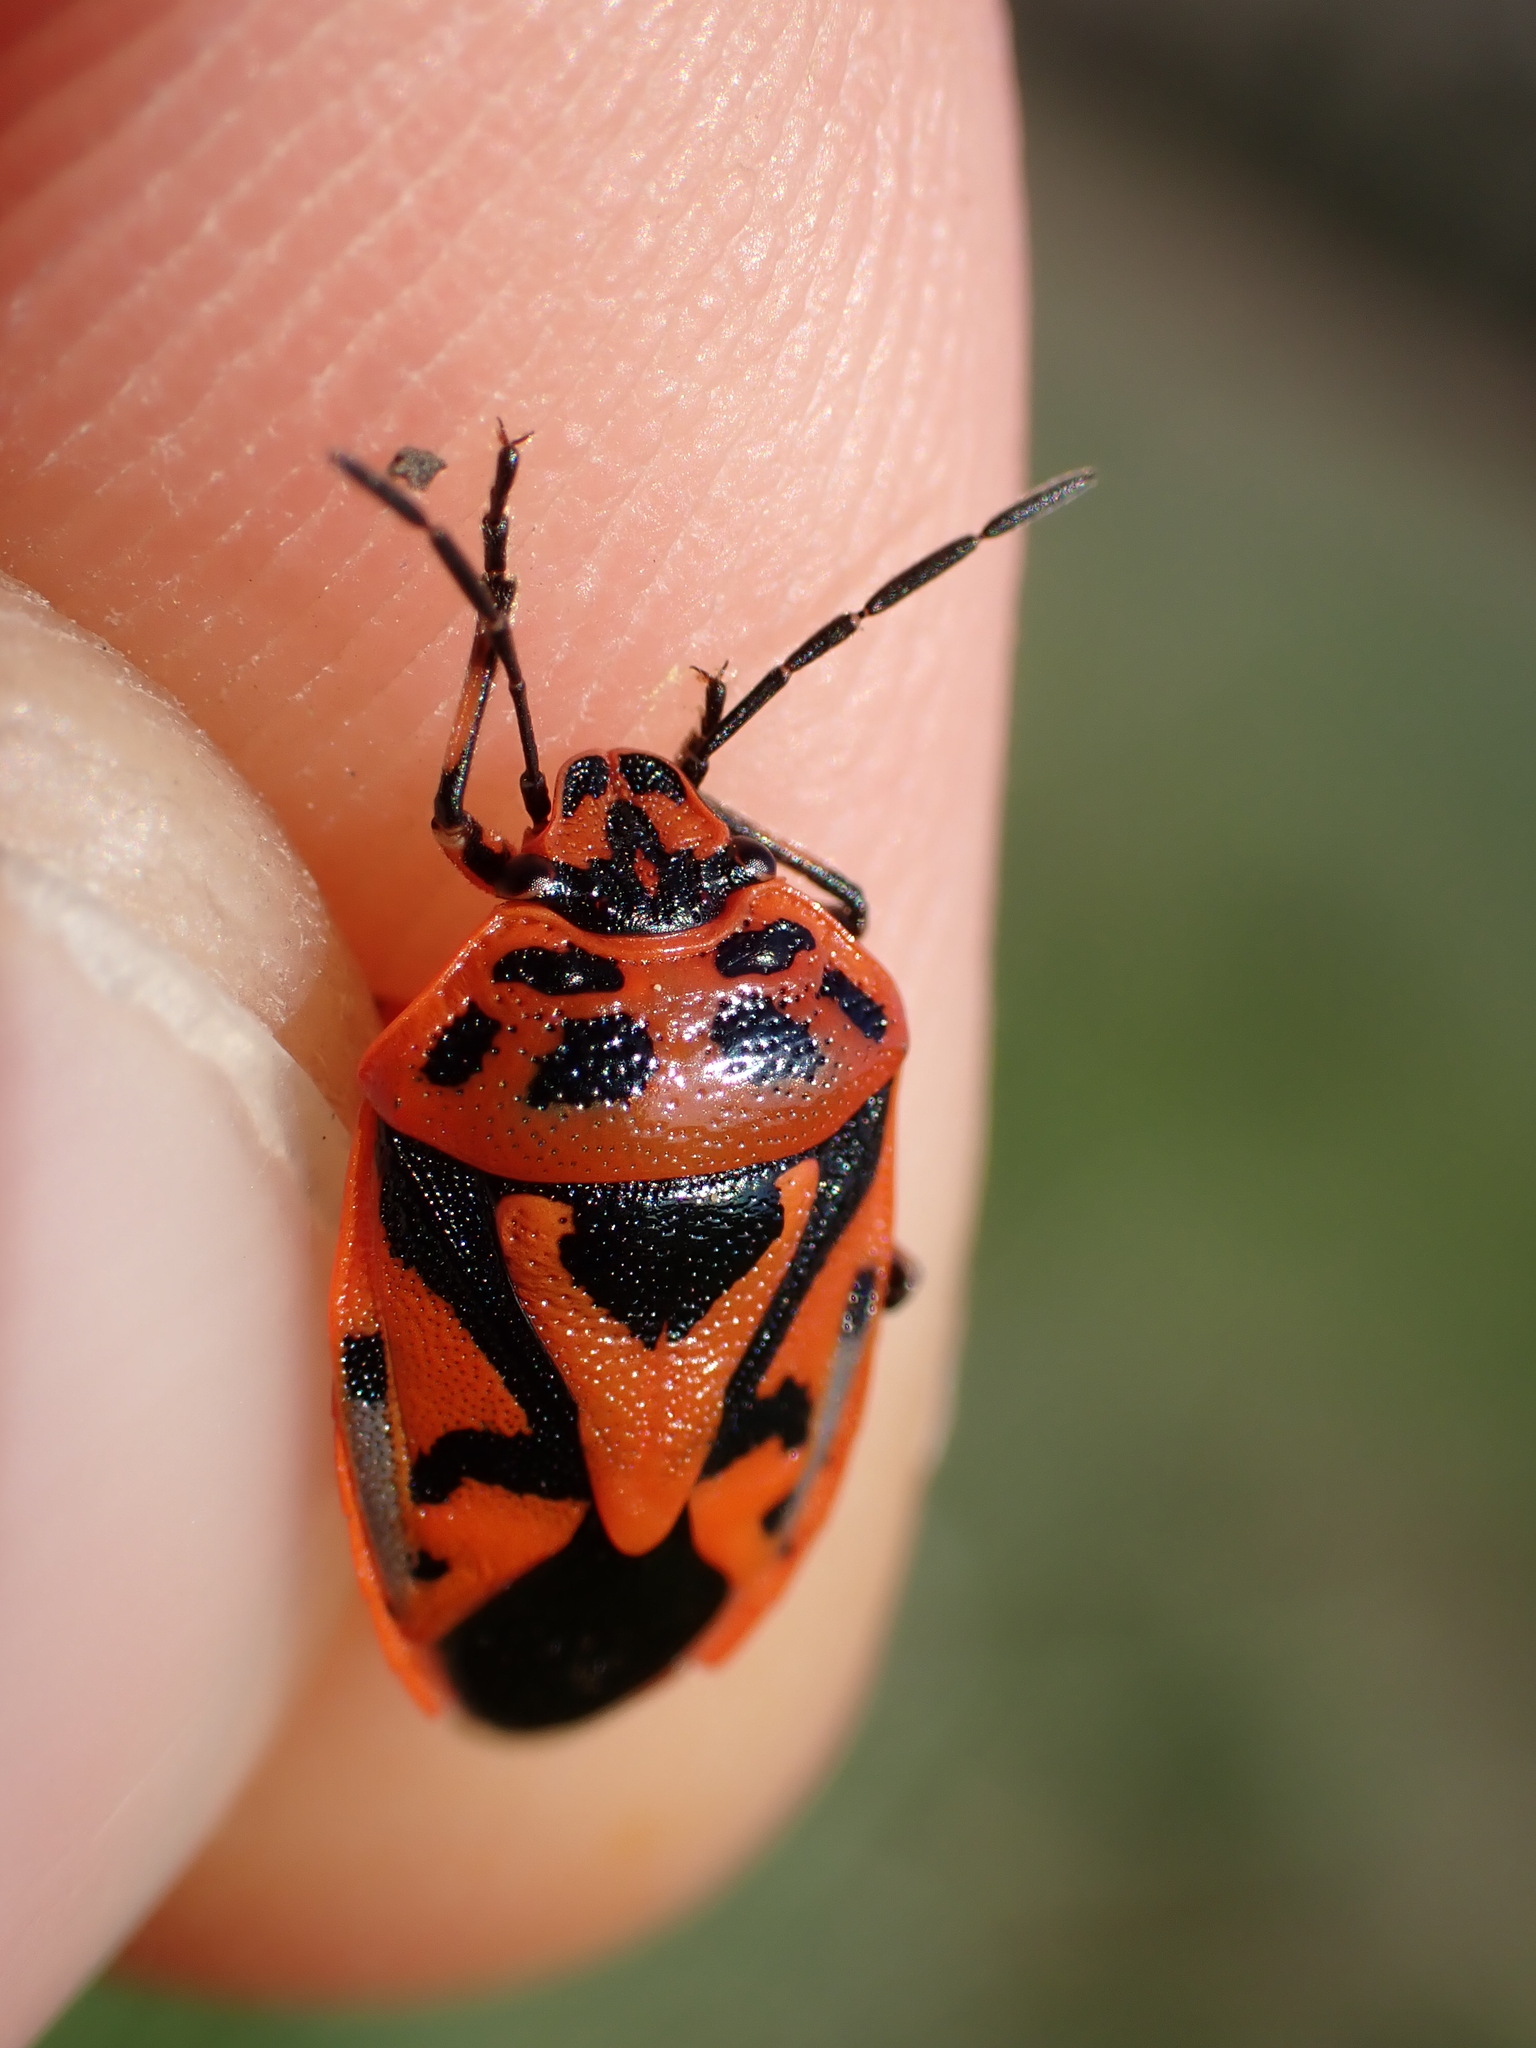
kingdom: Animalia
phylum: Arthropoda
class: Insecta
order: Hemiptera
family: Pentatomidae
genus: Eurydema
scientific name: Eurydema ornata
